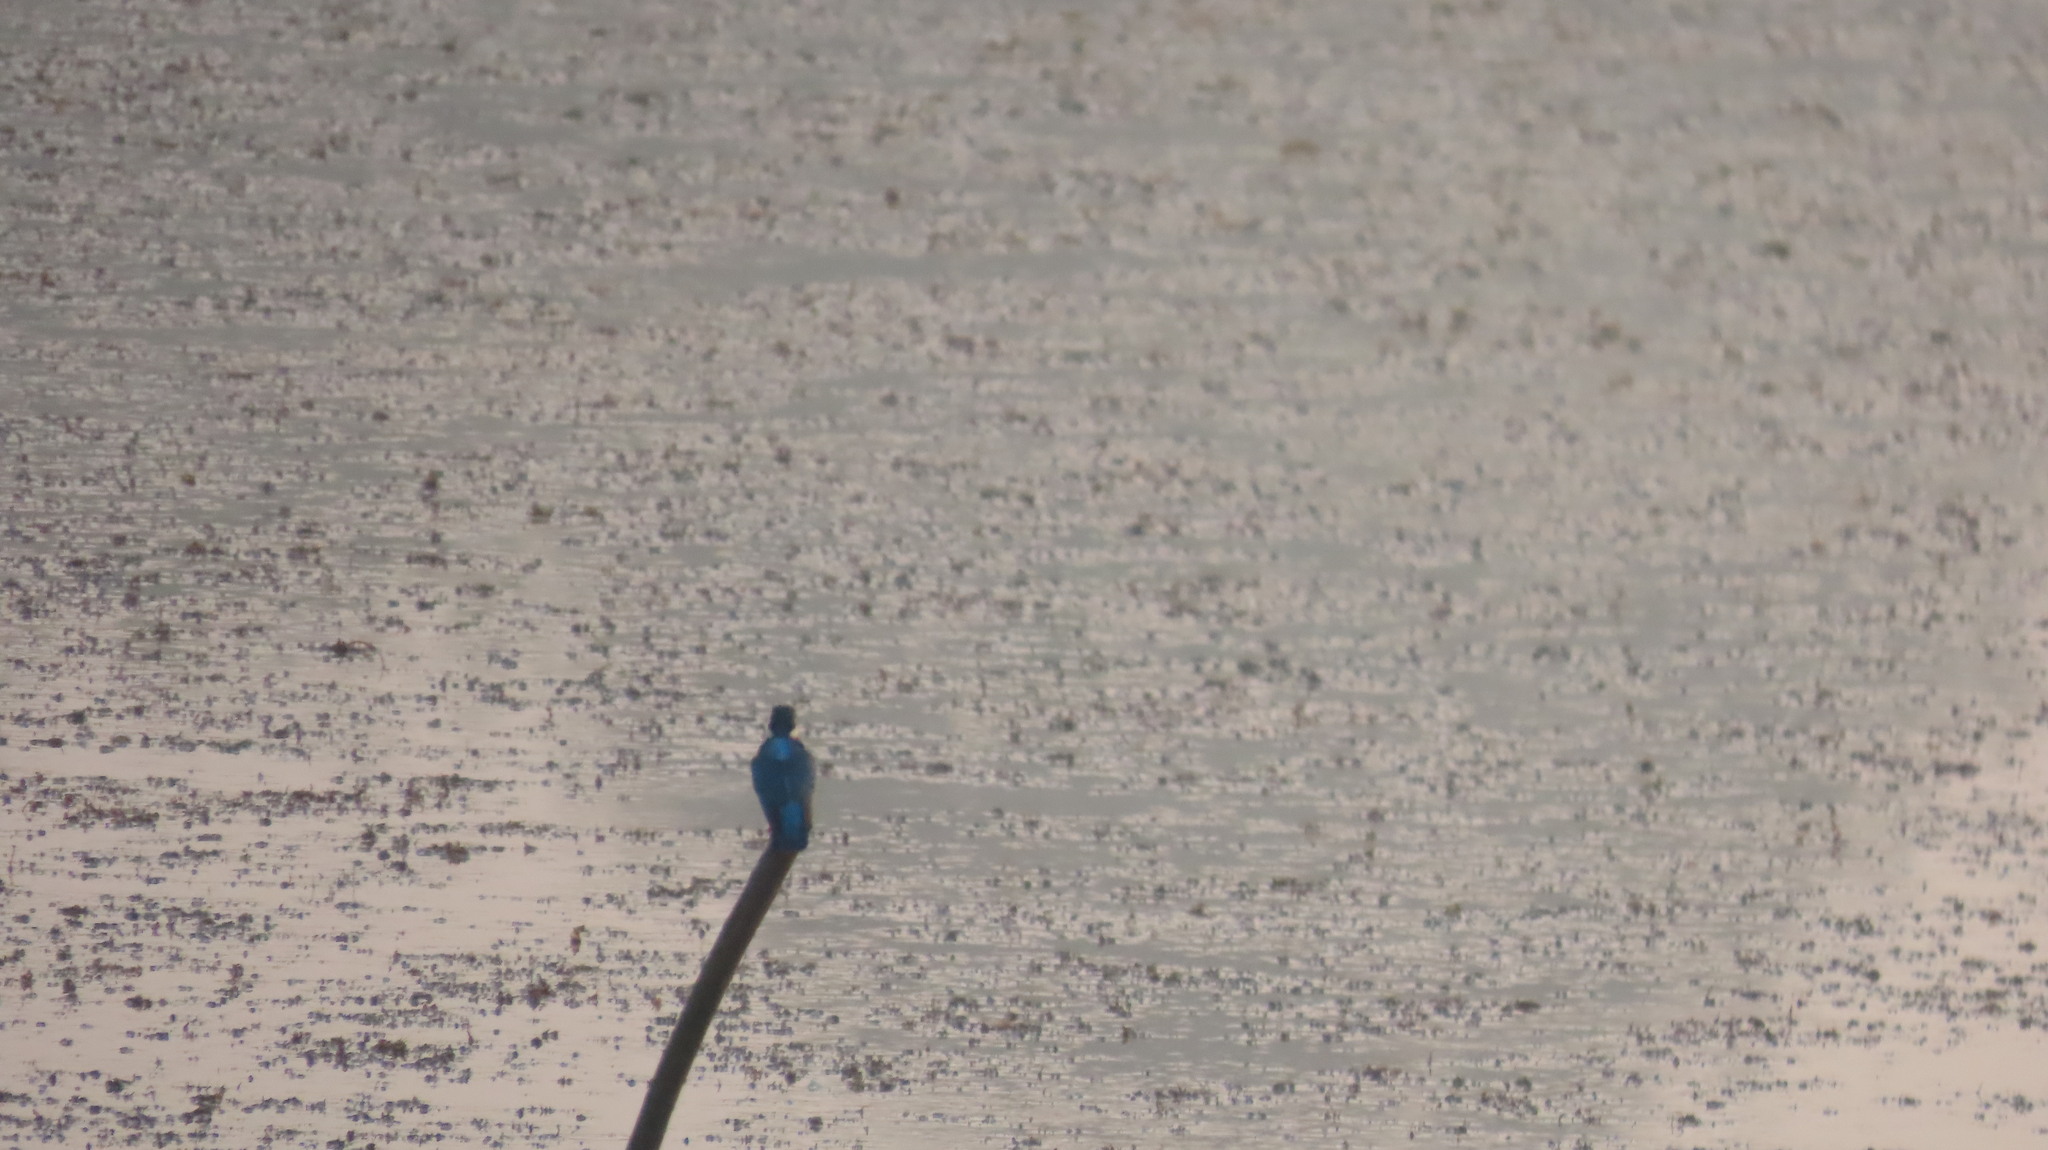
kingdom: Animalia
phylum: Chordata
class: Aves
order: Coraciiformes
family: Alcedinidae
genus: Alcedo
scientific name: Alcedo atthis
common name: Common kingfisher
